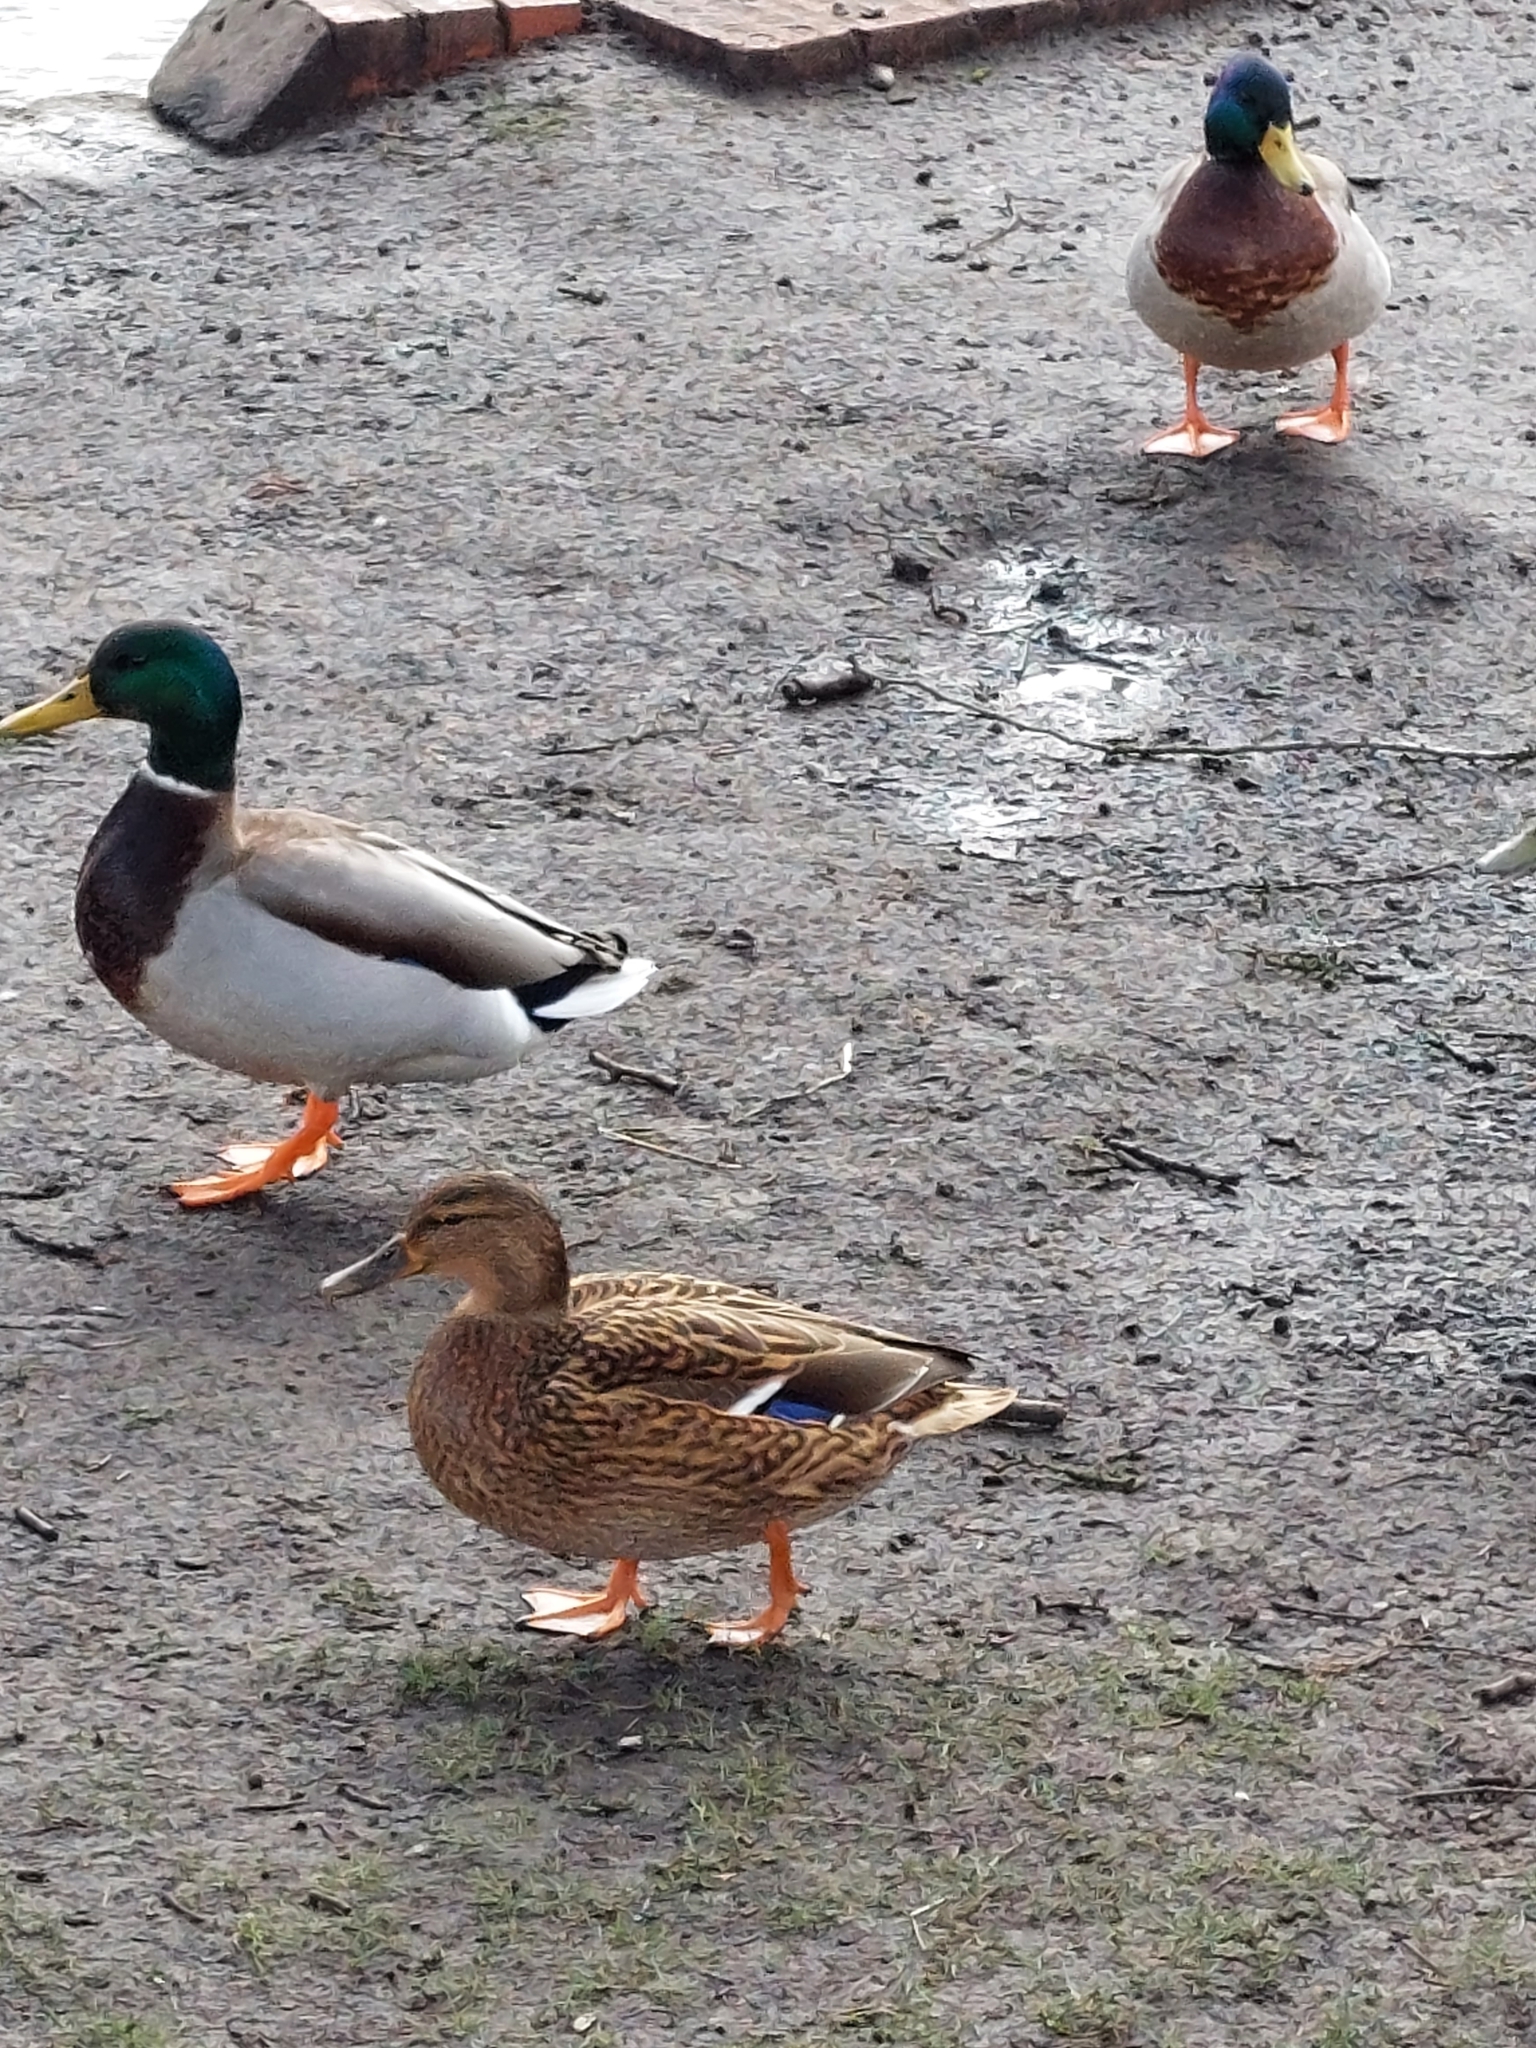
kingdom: Animalia
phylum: Chordata
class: Aves
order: Anseriformes
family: Anatidae
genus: Anas
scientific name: Anas platyrhynchos
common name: Mallard
